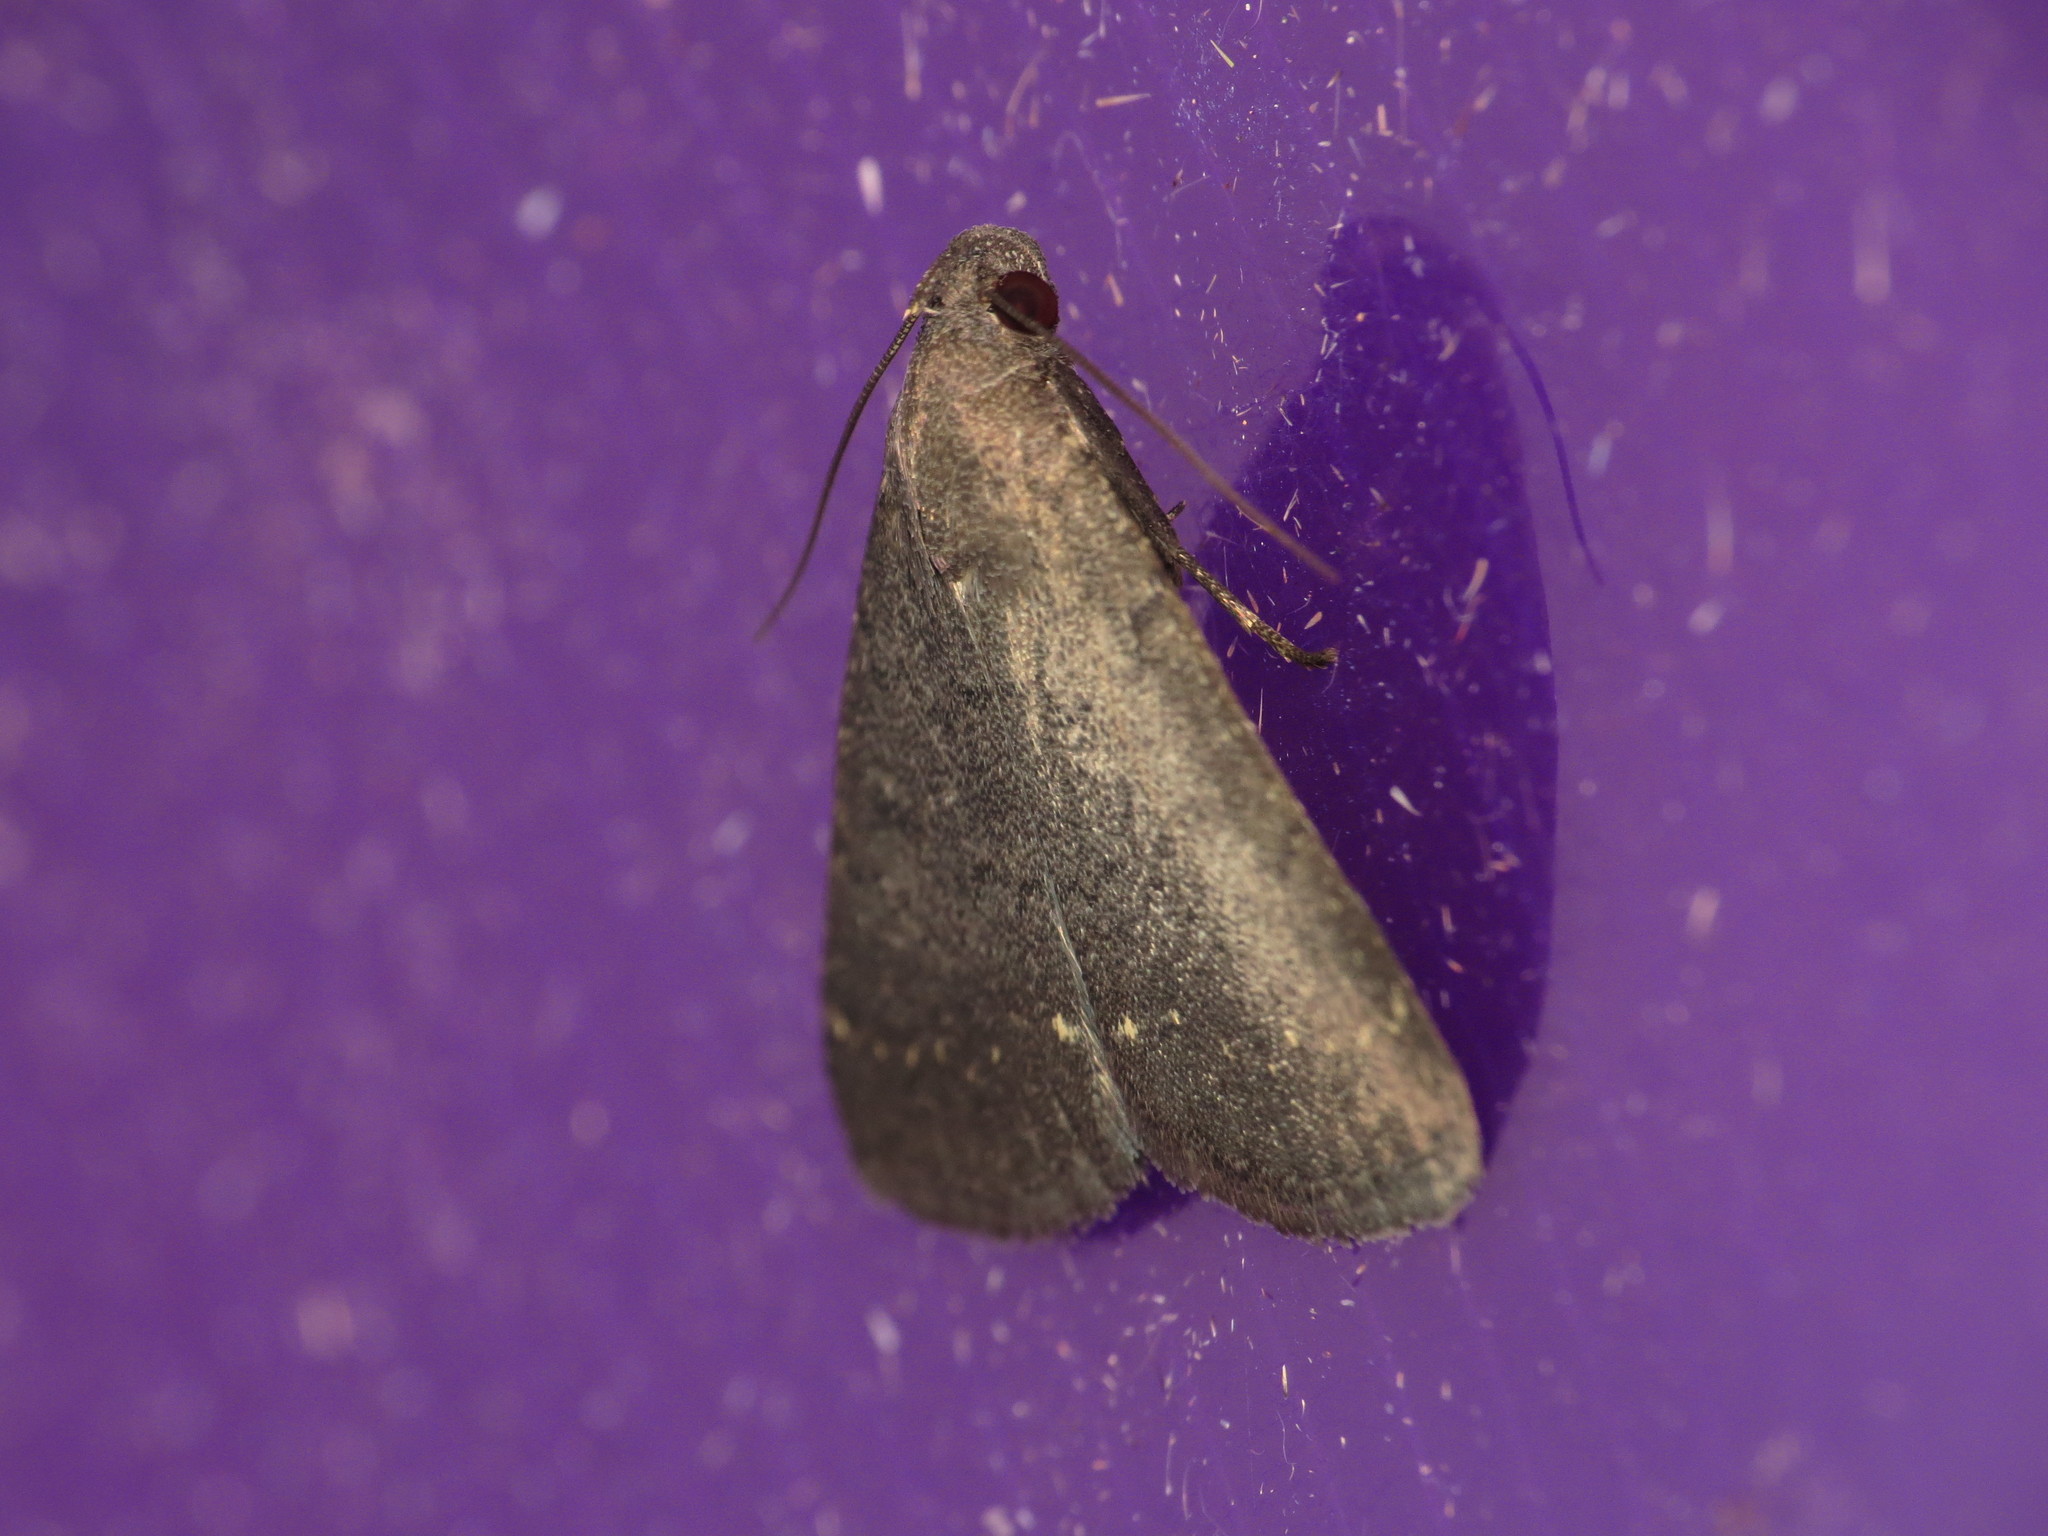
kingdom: Animalia
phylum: Arthropoda
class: Insecta
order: Lepidoptera
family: Erebidae
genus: Simplicia
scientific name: Simplicia cornicalis
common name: Tiki hut litter moth
